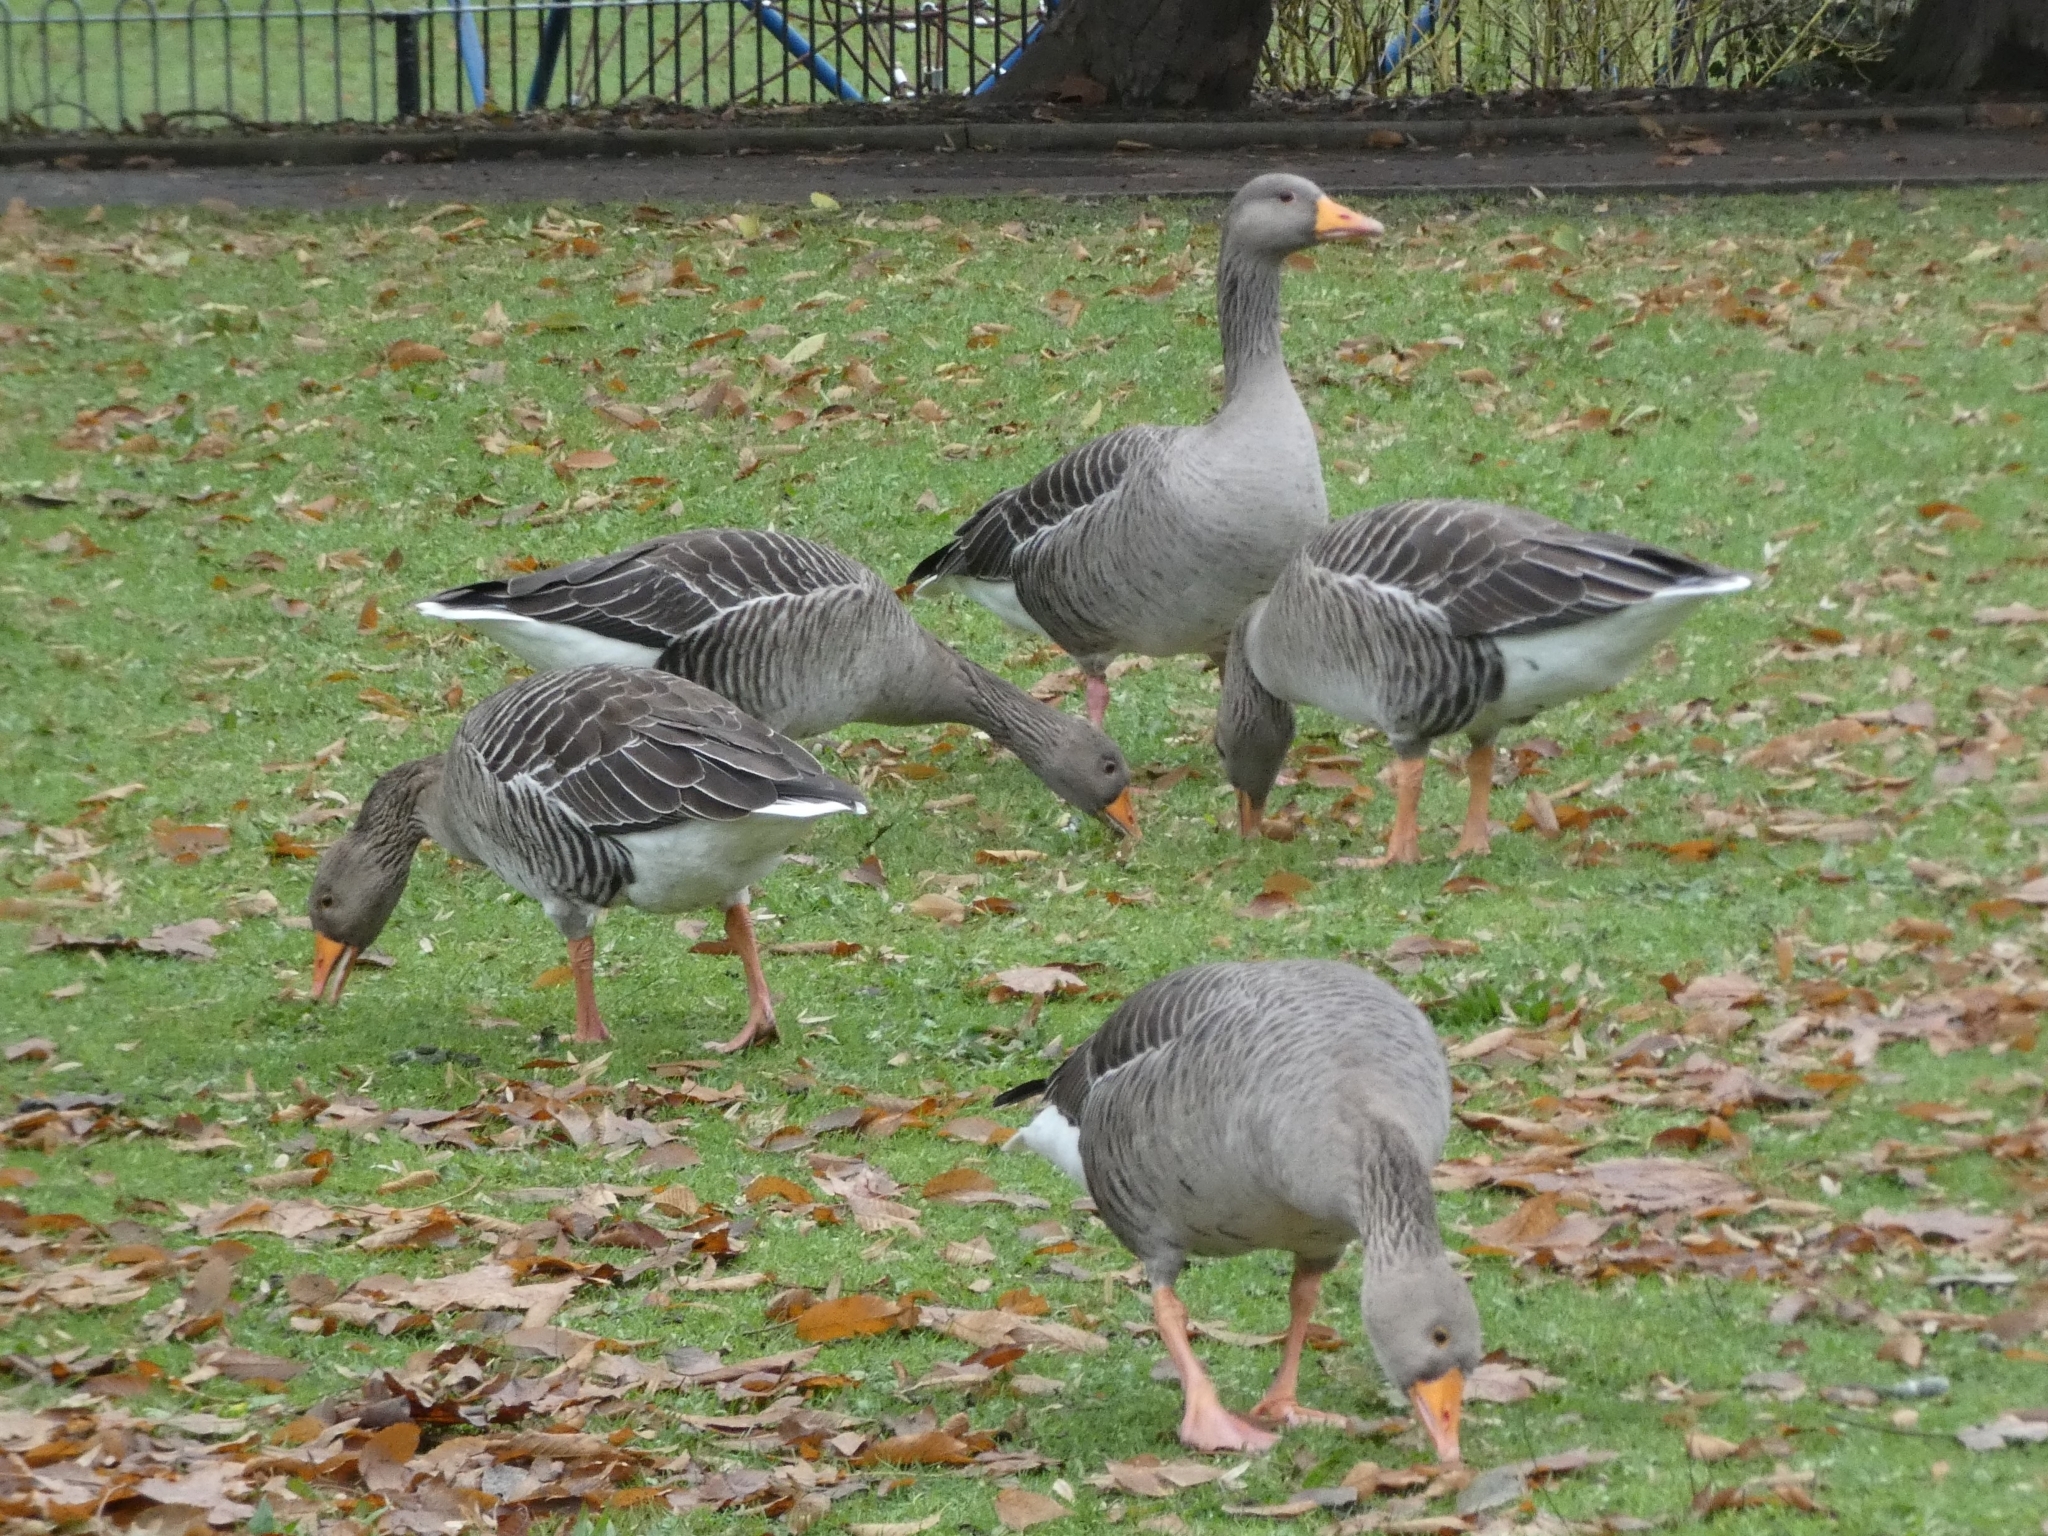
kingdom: Animalia
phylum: Chordata
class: Aves
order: Anseriformes
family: Anatidae
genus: Anser
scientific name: Anser anser
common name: Greylag goose
